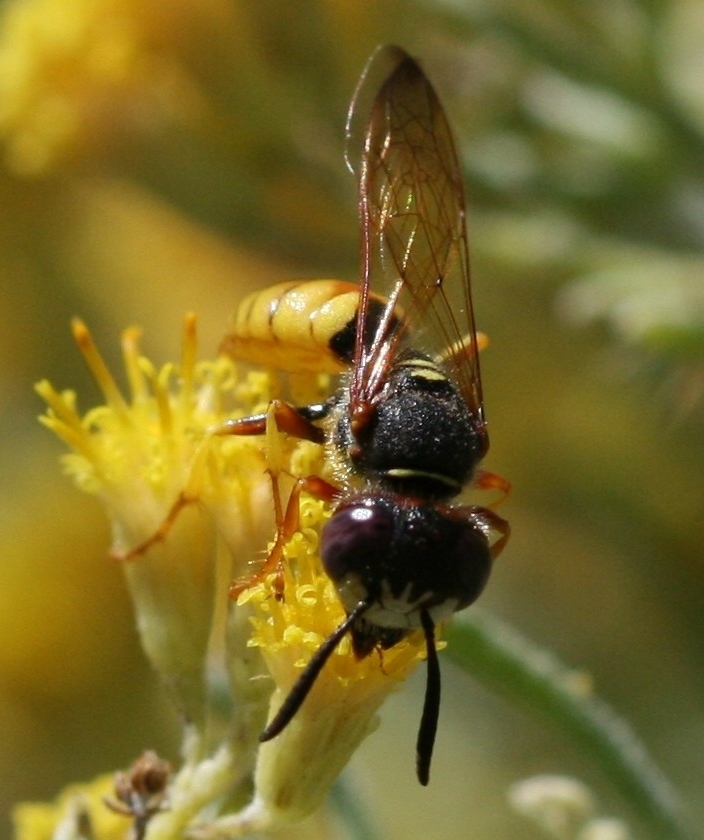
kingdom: Animalia
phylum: Arthropoda
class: Insecta
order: Hymenoptera
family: Crabronidae
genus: Philanthus
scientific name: Philanthus triangulum
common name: Bee wolf
